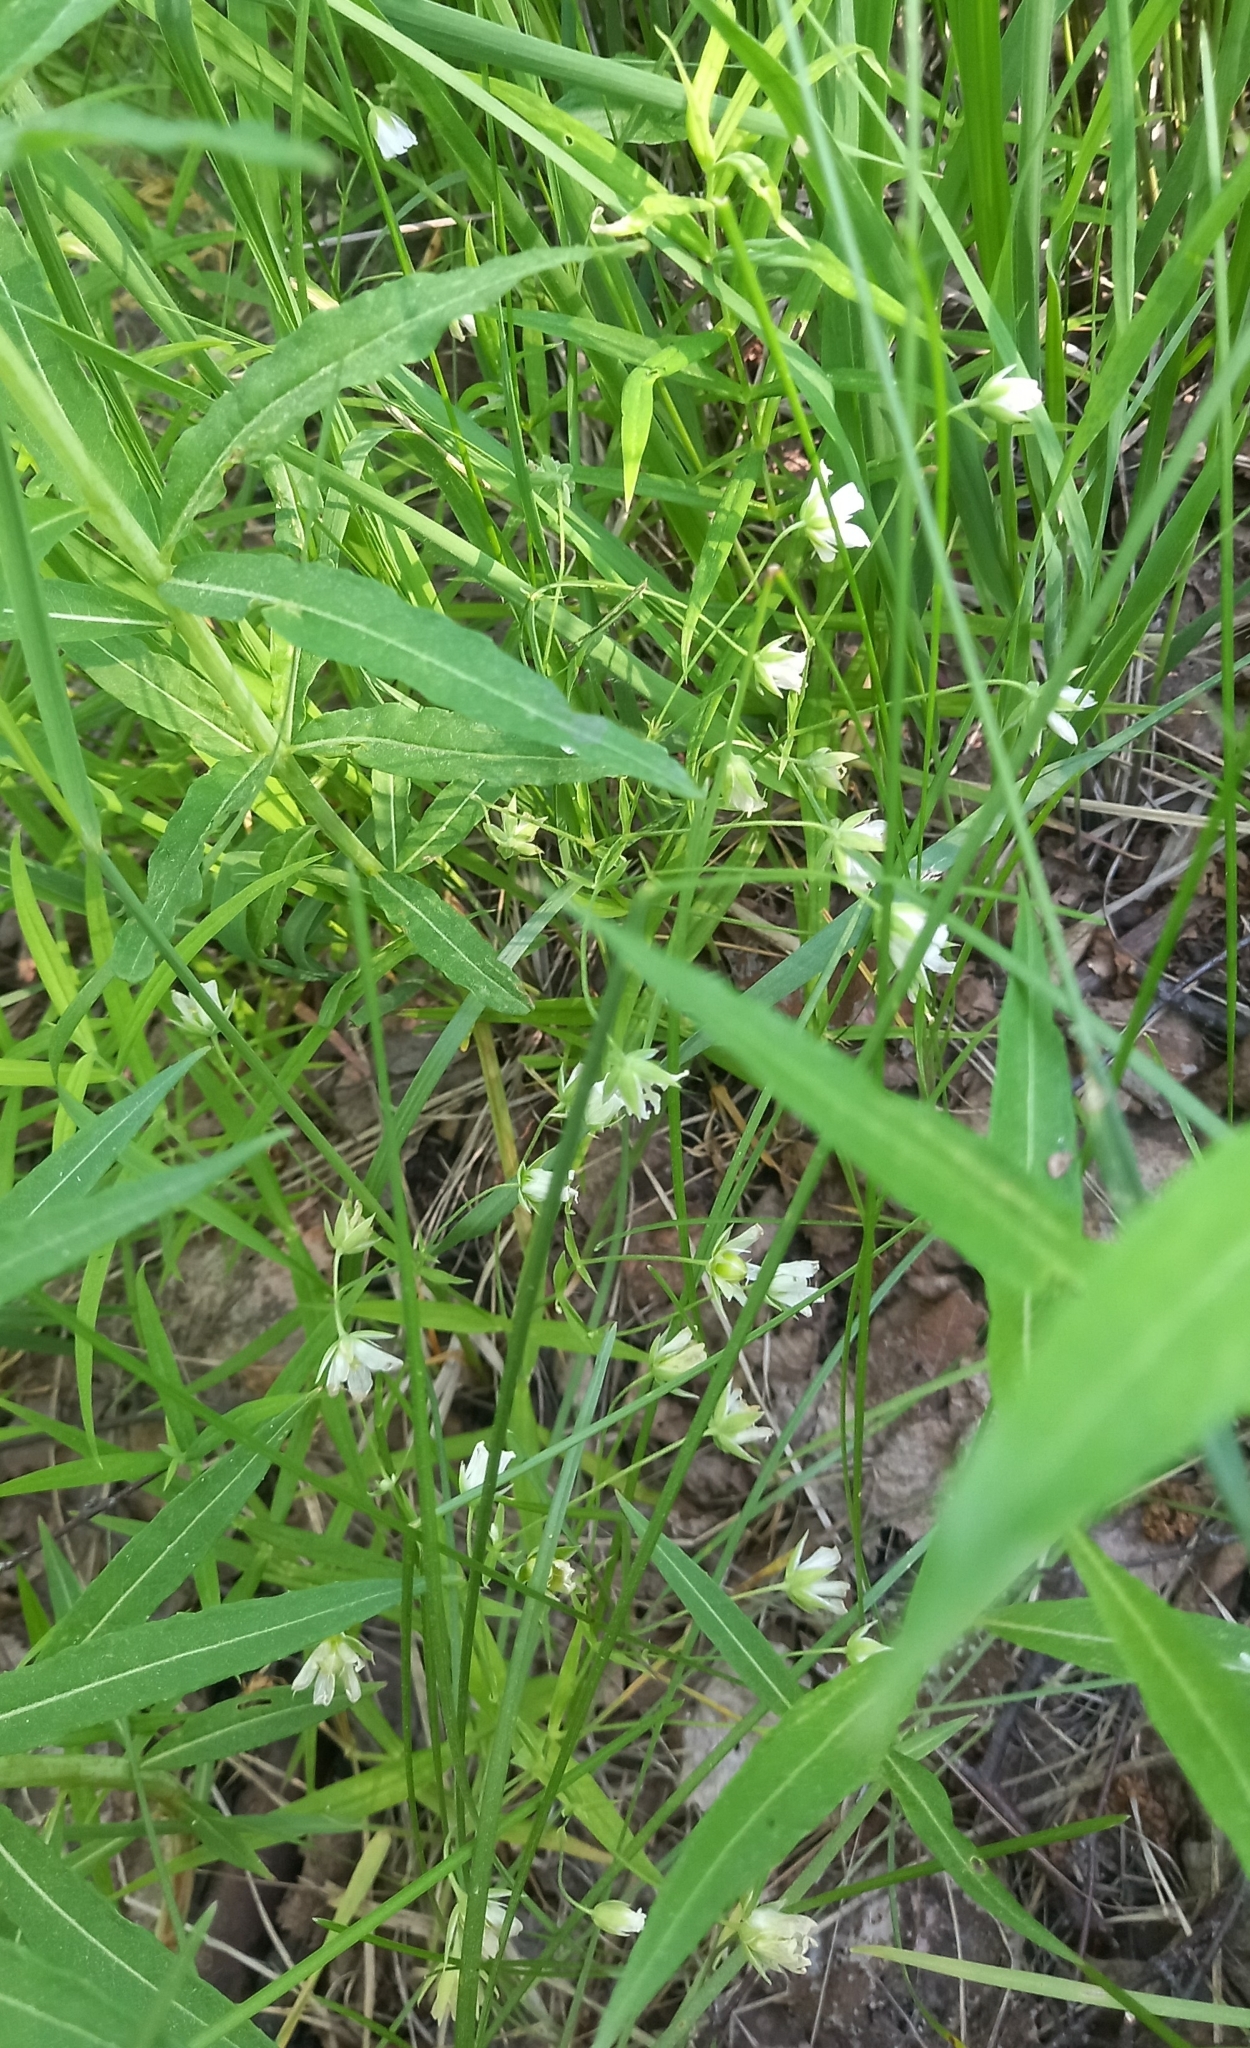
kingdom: Plantae
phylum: Tracheophyta
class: Magnoliopsida
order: Caryophyllales
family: Caryophyllaceae
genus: Rabelera
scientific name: Rabelera holostea
